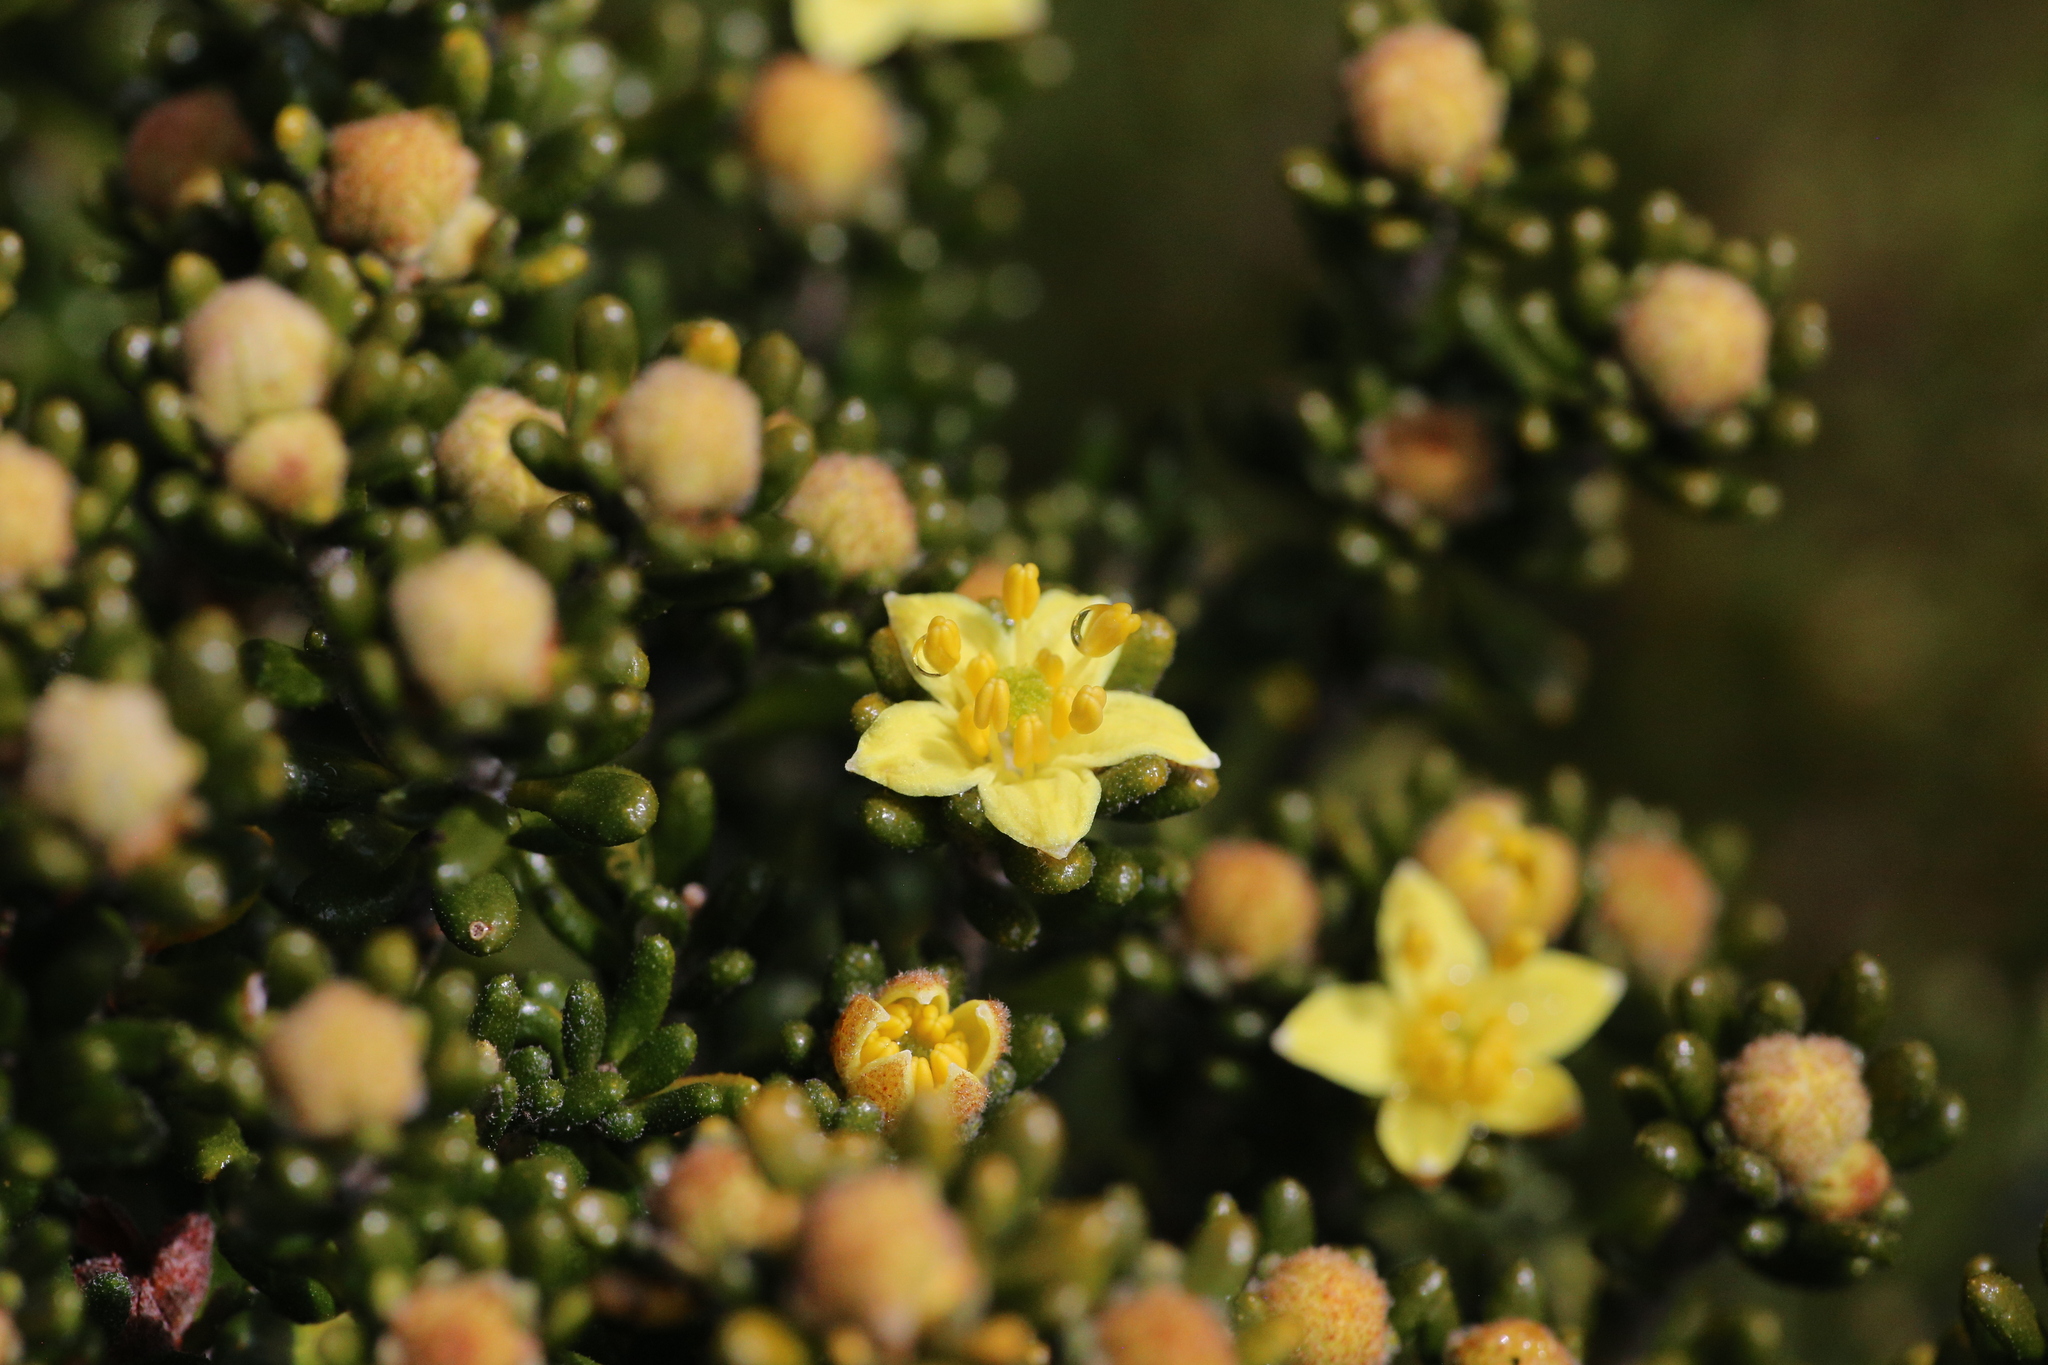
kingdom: Plantae
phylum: Tracheophyta
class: Magnoliopsida
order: Sapindales
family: Rutaceae
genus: Asterolasia
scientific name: Asterolasia trymalioides
